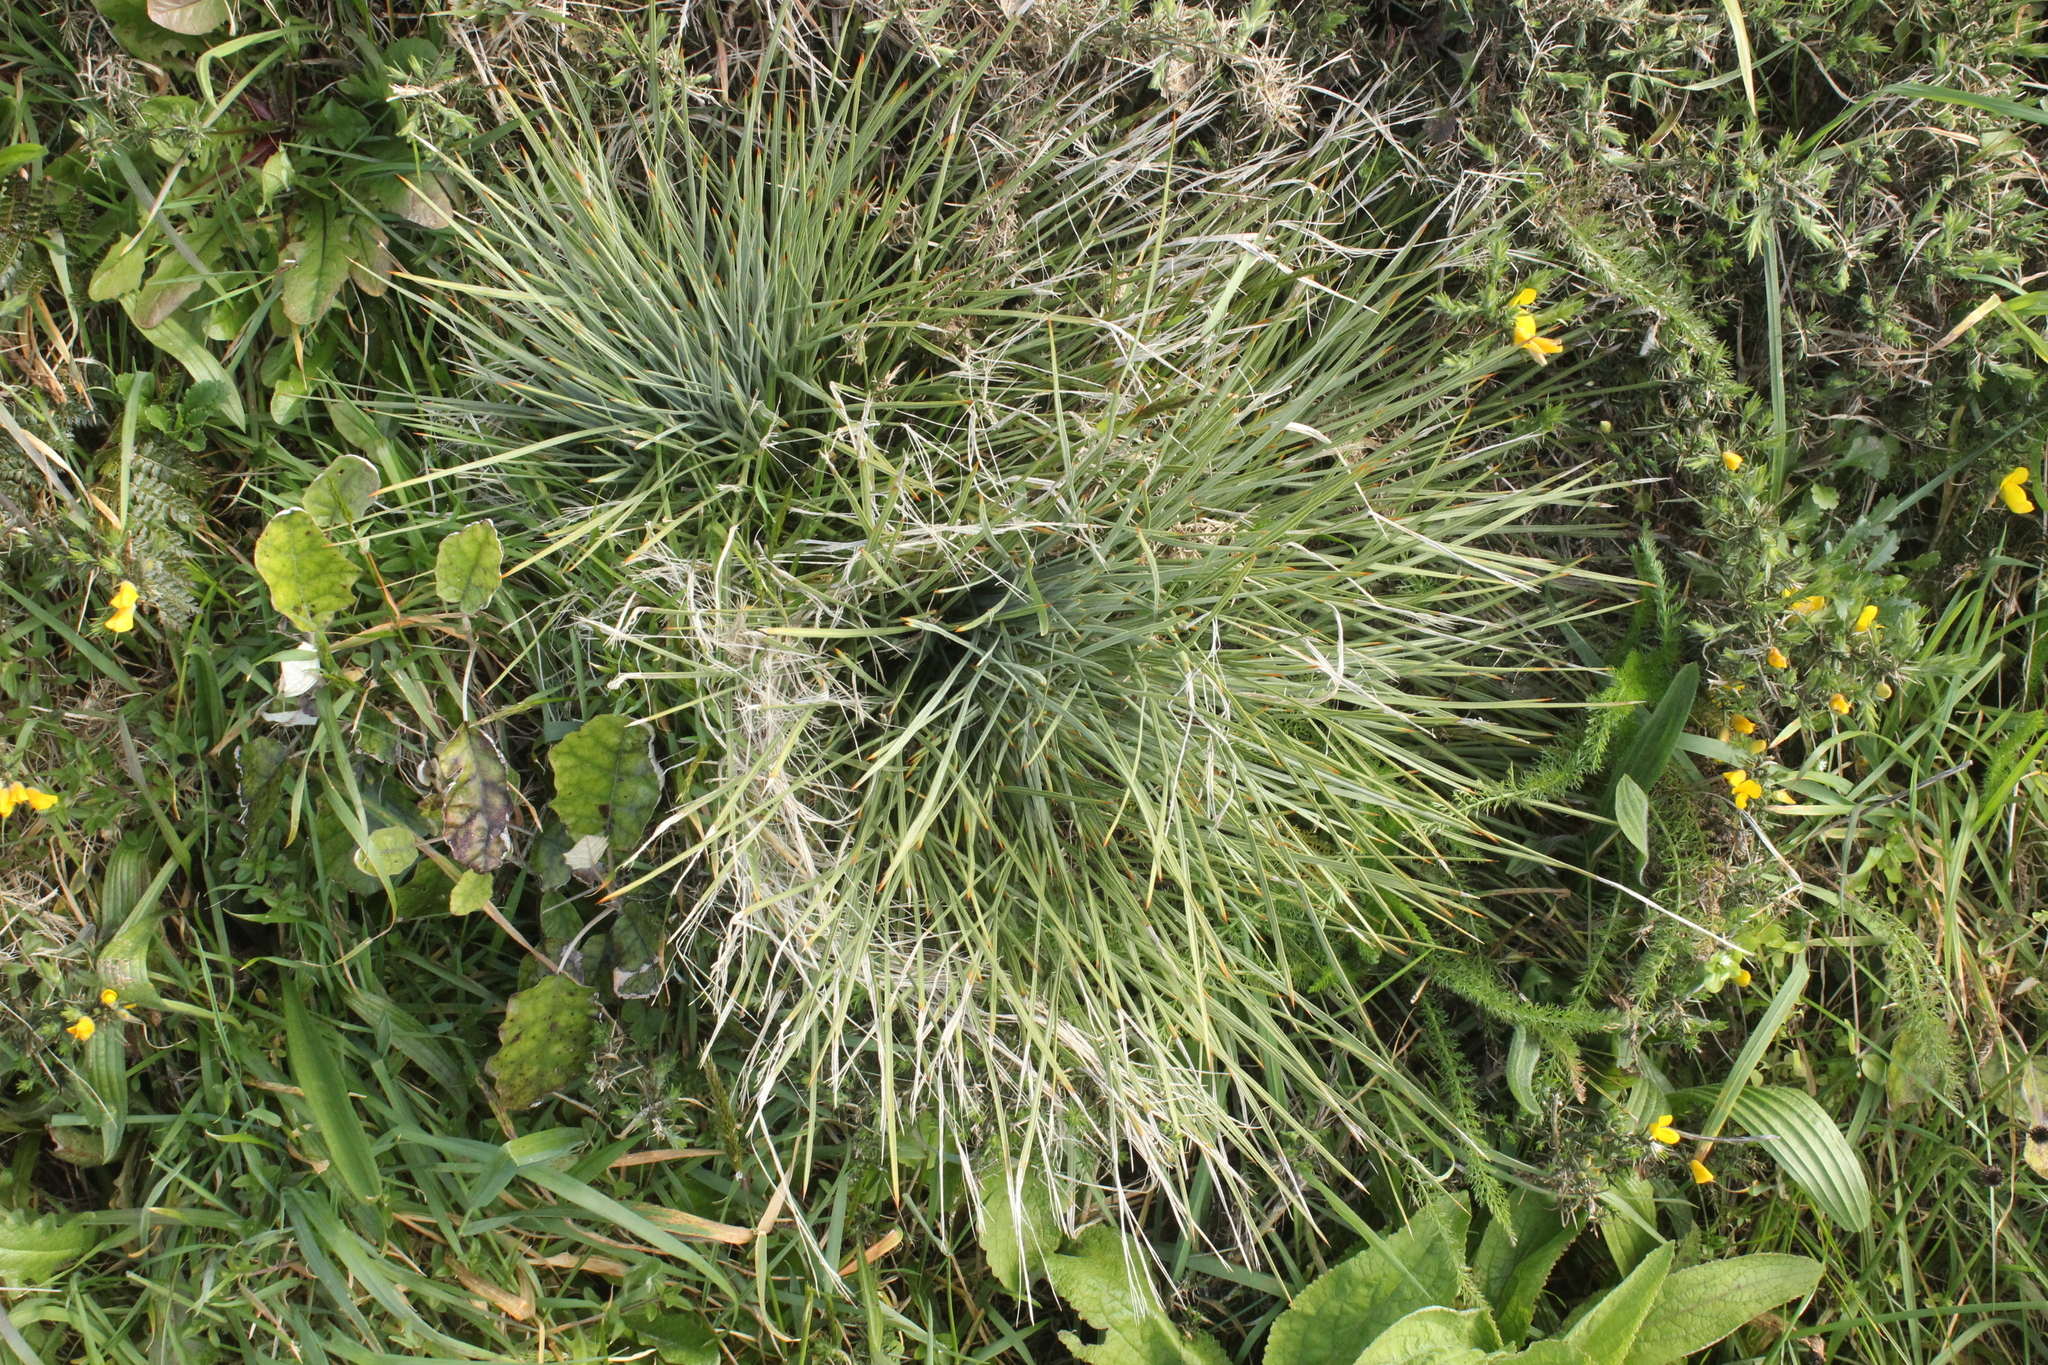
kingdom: Plantae
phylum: Tracheophyta
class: Magnoliopsida
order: Apiales
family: Apiaceae
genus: Aciphylla
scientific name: Aciphylla squarrosa
